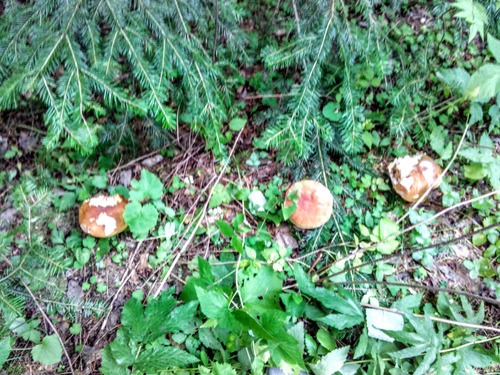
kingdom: Fungi
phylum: Basidiomycota
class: Agaricomycetes
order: Boletales
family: Boletaceae
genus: Boletus
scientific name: Boletus edulis
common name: Cep
